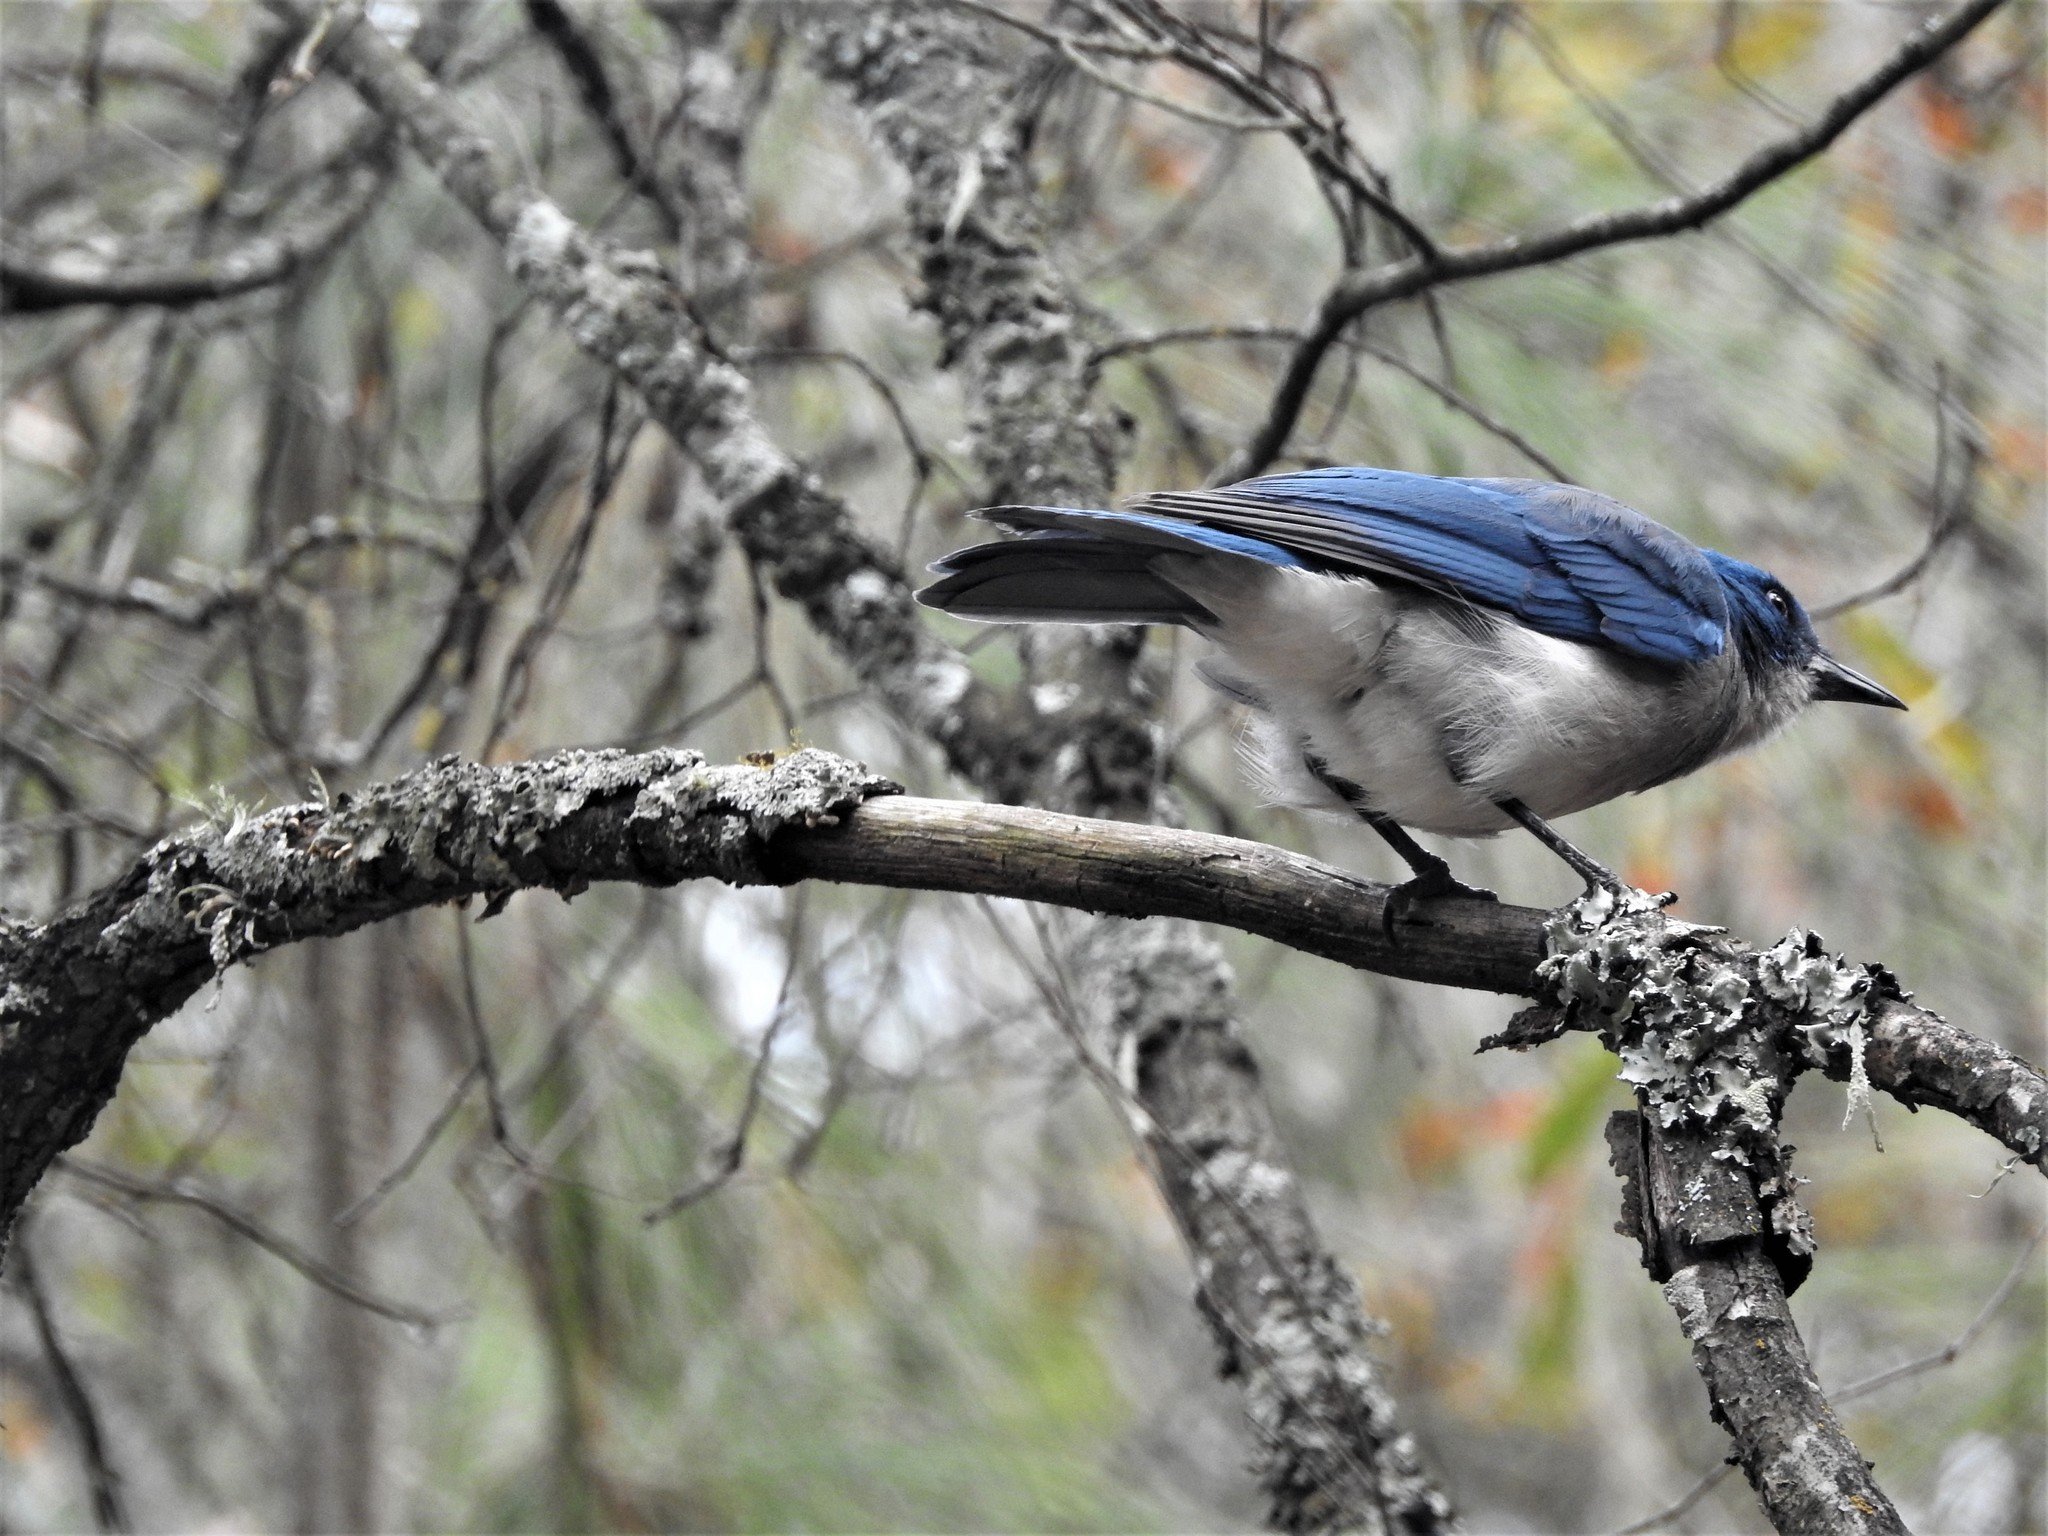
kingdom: Animalia
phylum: Chordata
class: Aves
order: Passeriformes
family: Corvidae
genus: Aphelocoma
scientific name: Aphelocoma wollweberi
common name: Mexican jay
